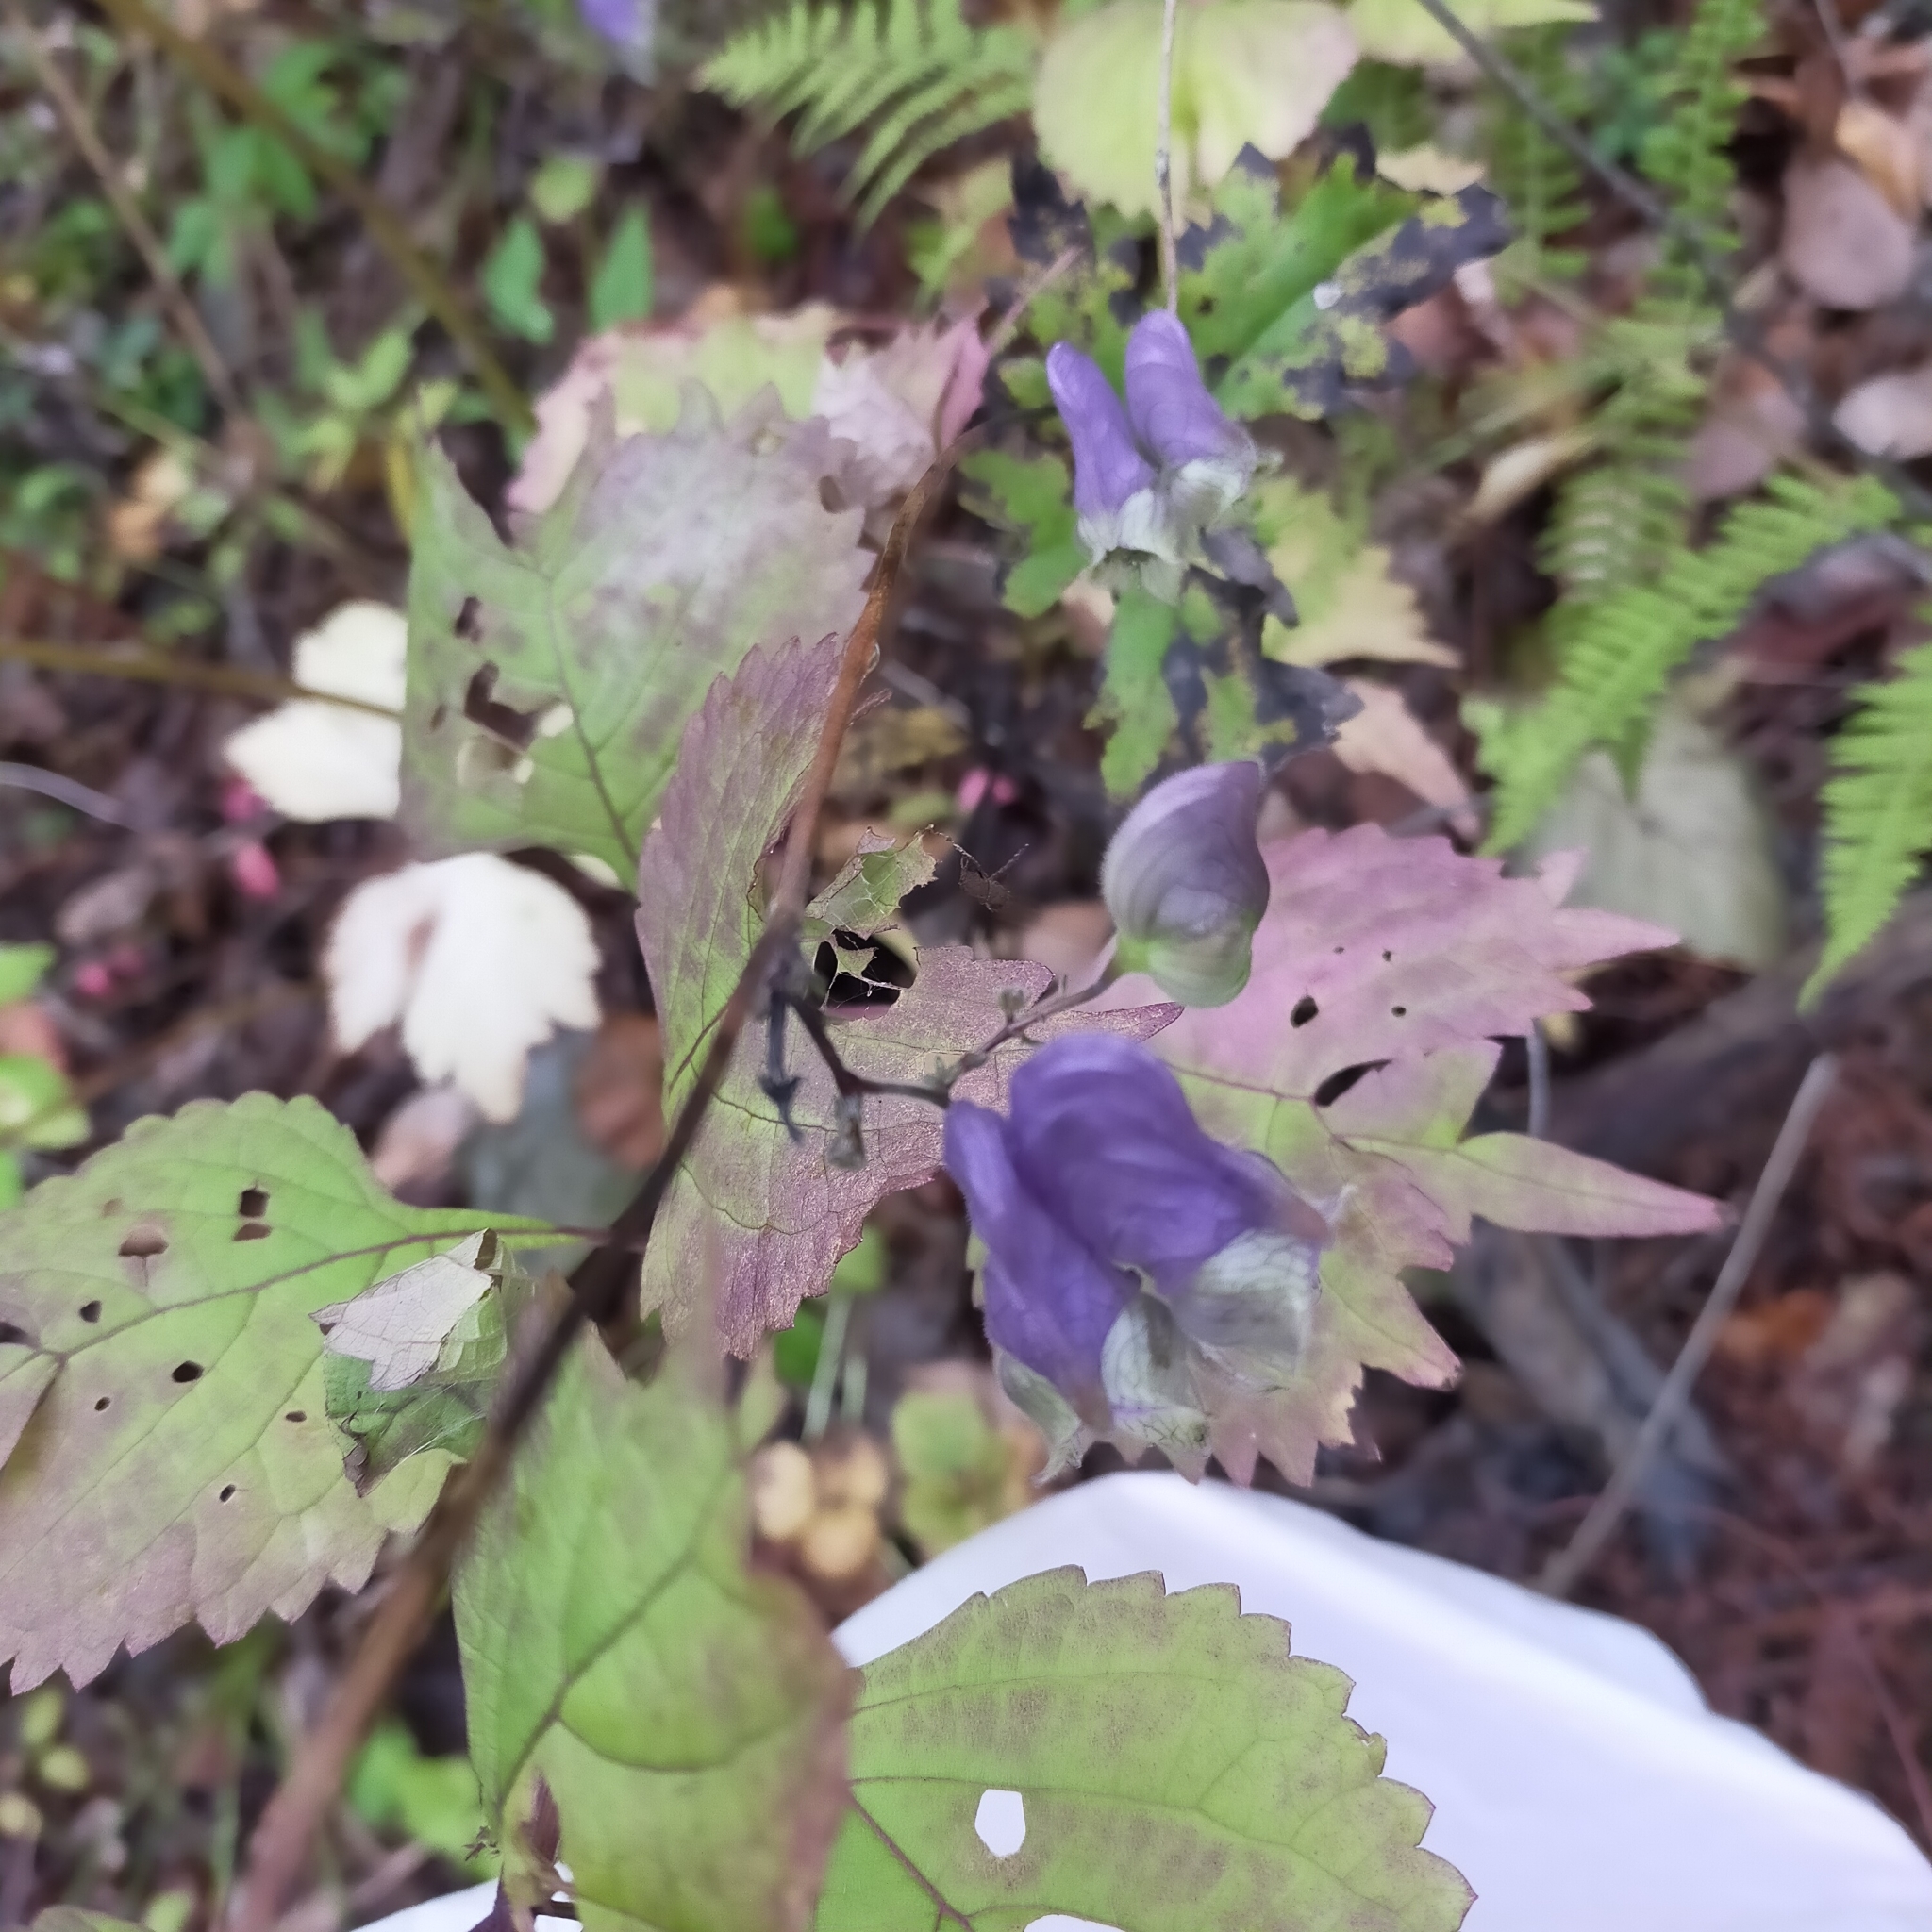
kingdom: Plantae
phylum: Tracheophyta
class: Magnoliopsida
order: Ranunculales
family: Ranunculaceae
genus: Aconitum
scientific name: Aconitum stoloniferum
